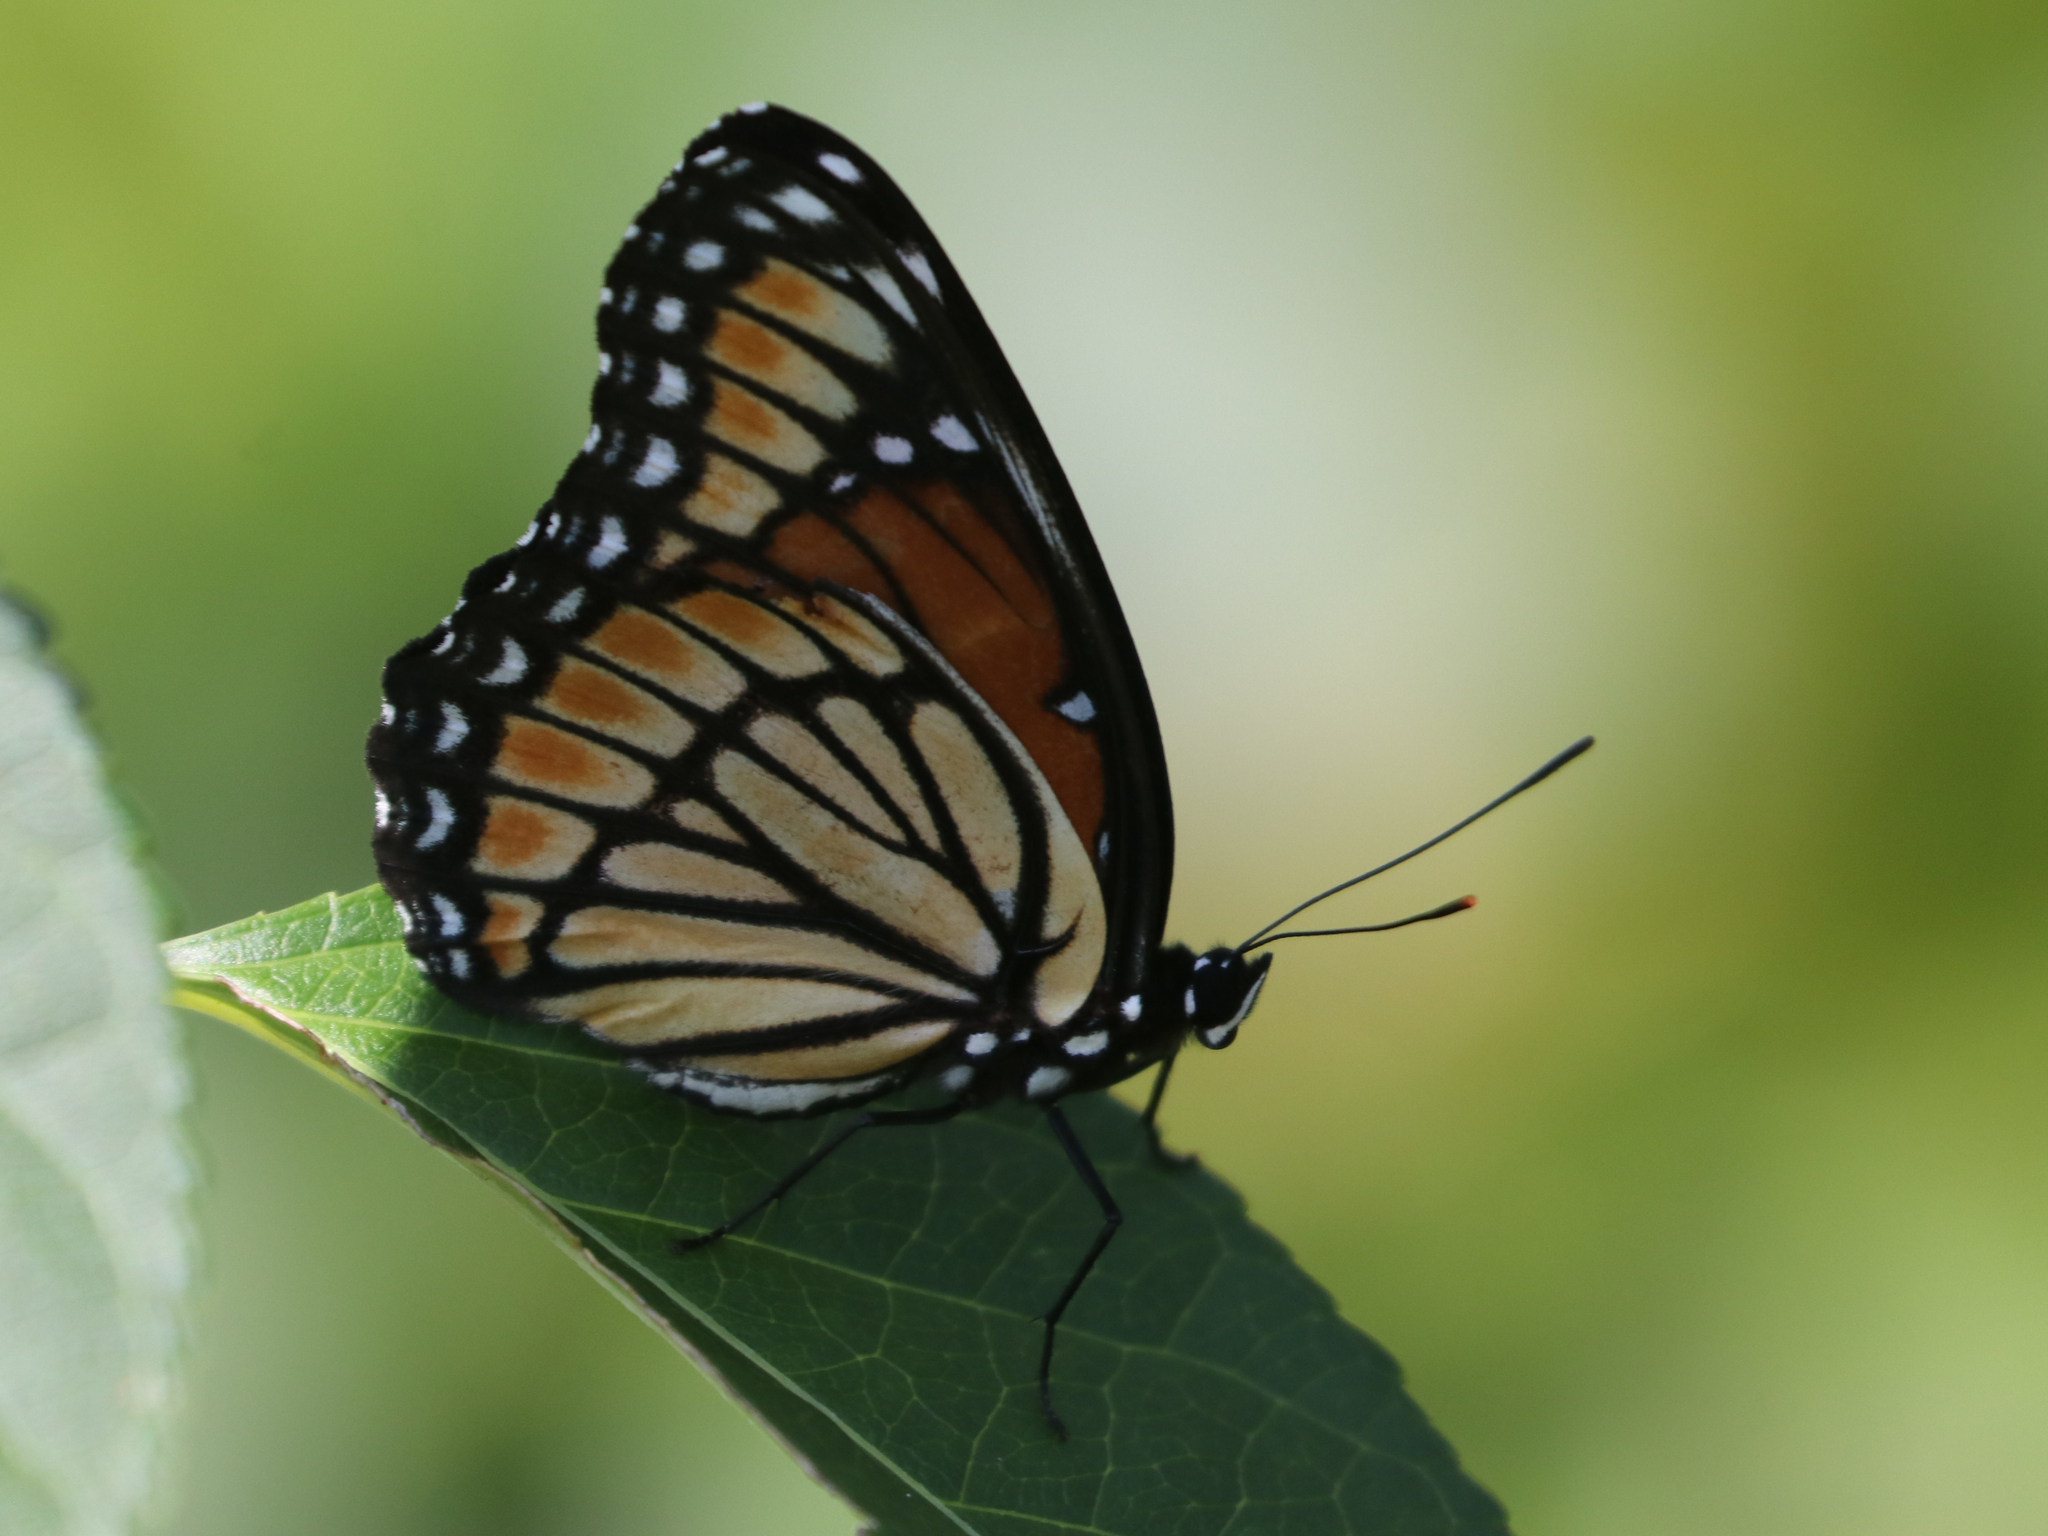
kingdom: Animalia
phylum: Arthropoda
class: Insecta
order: Lepidoptera
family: Nymphalidae
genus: Limenitis
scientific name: Limenitis archippus
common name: Viceroy
